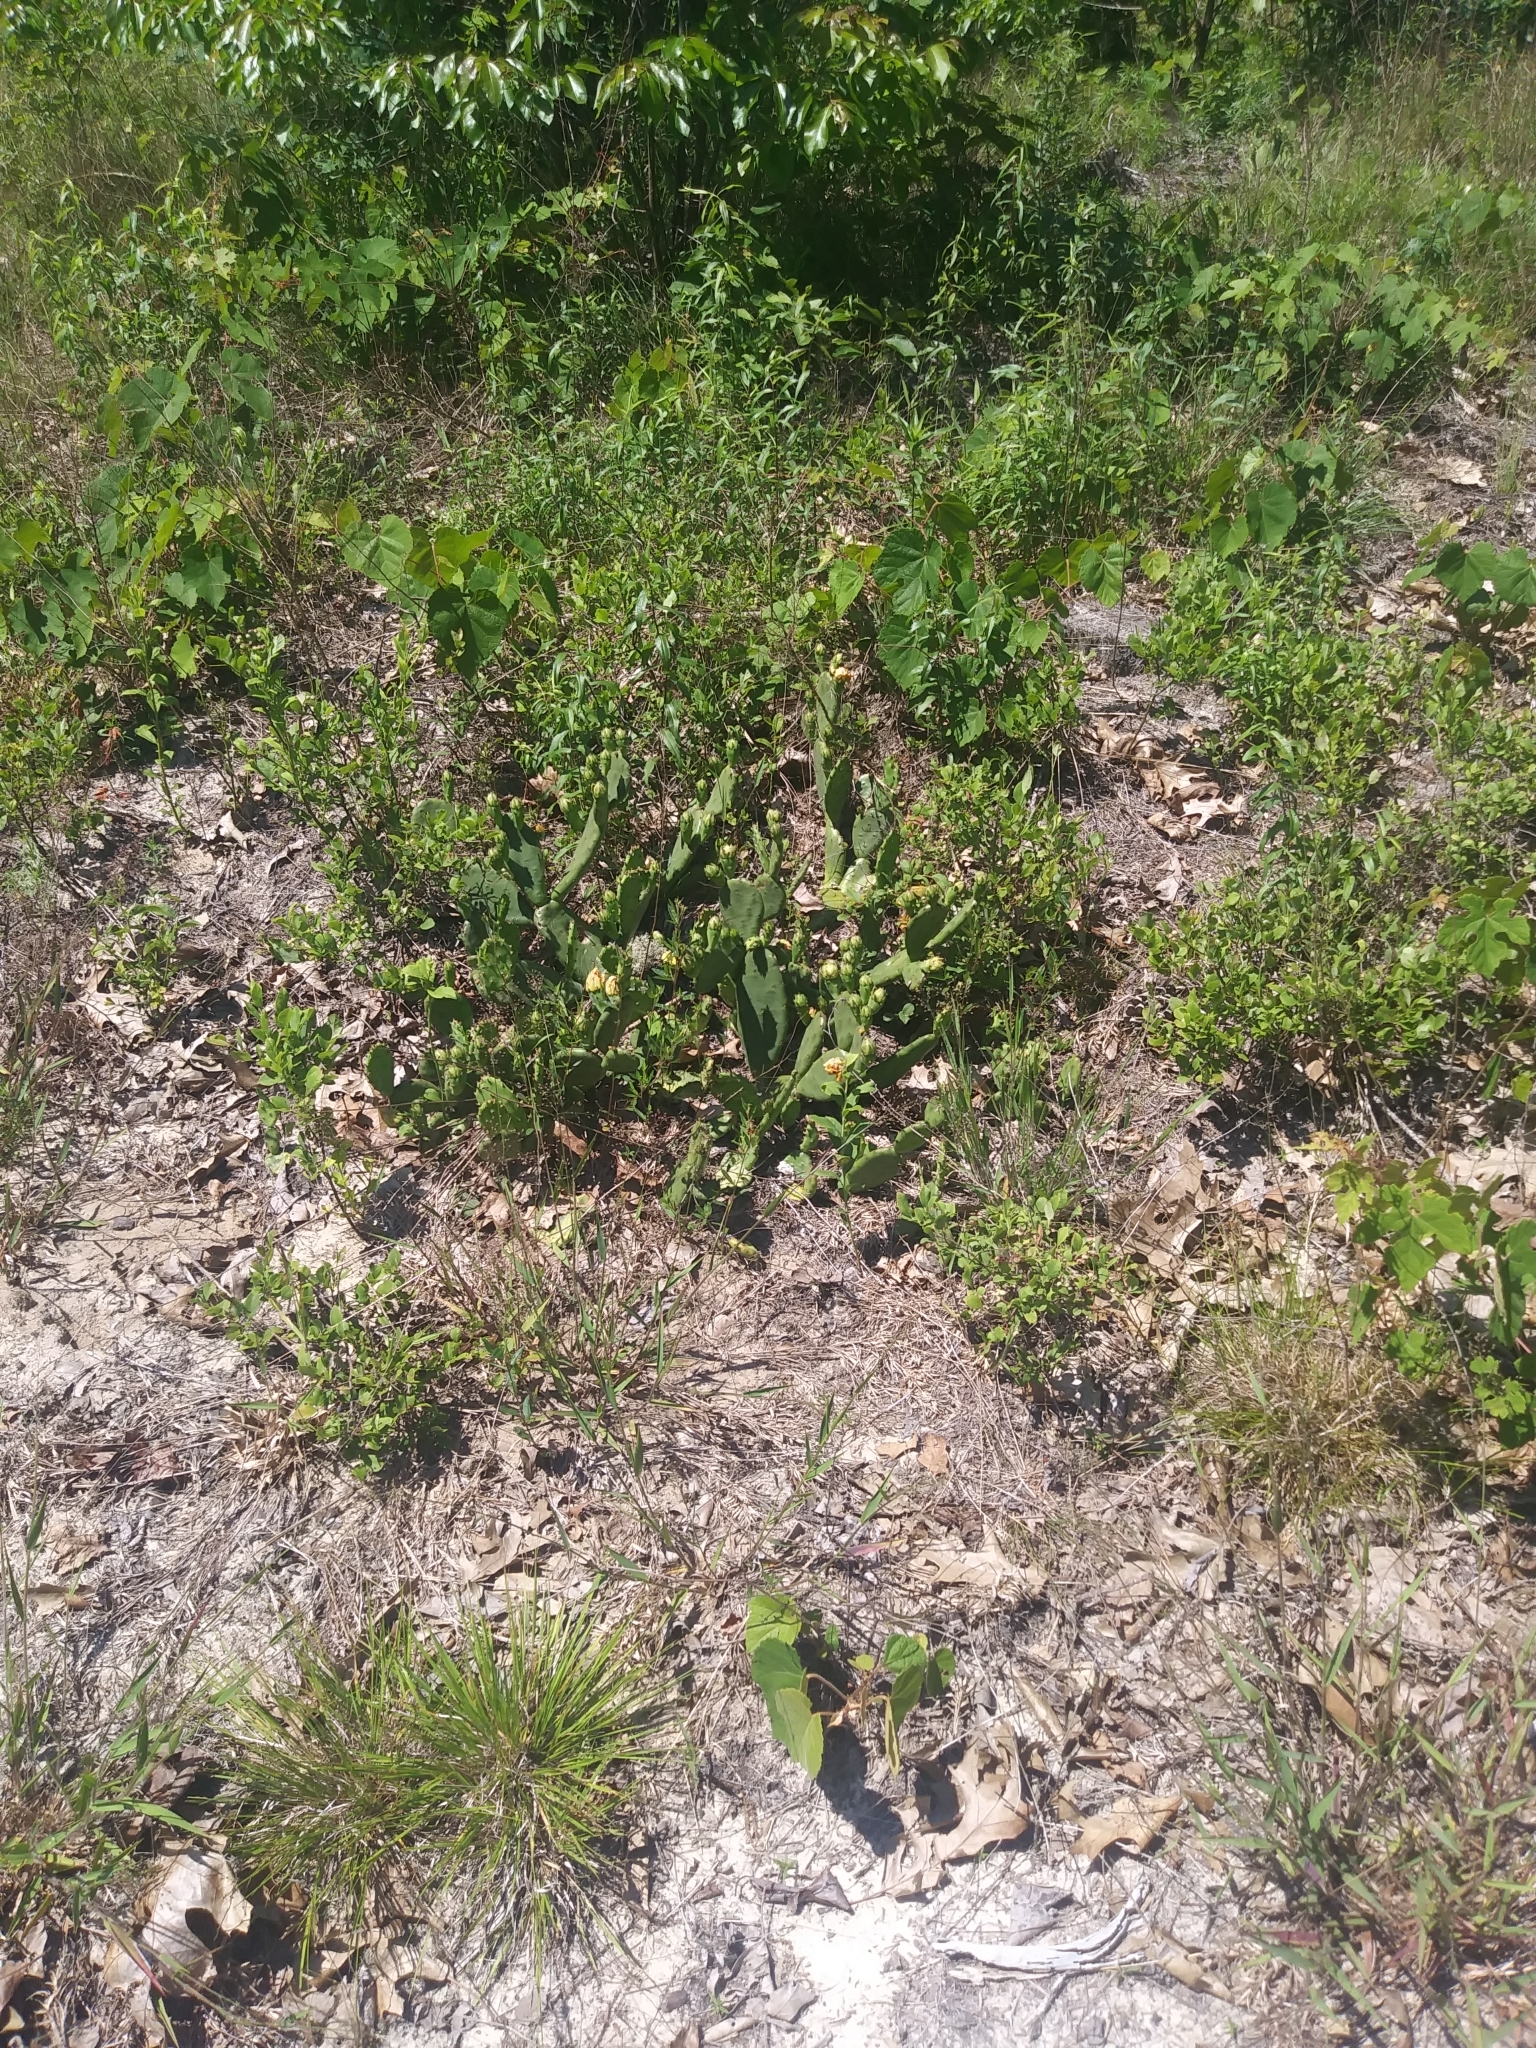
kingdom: Plantae
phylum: Tracheophyta
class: Magnoliopsida
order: Caryophyllales
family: Cactaceae
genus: Opuntia
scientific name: Opuntia humifusa
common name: Eastern prickly-pear
